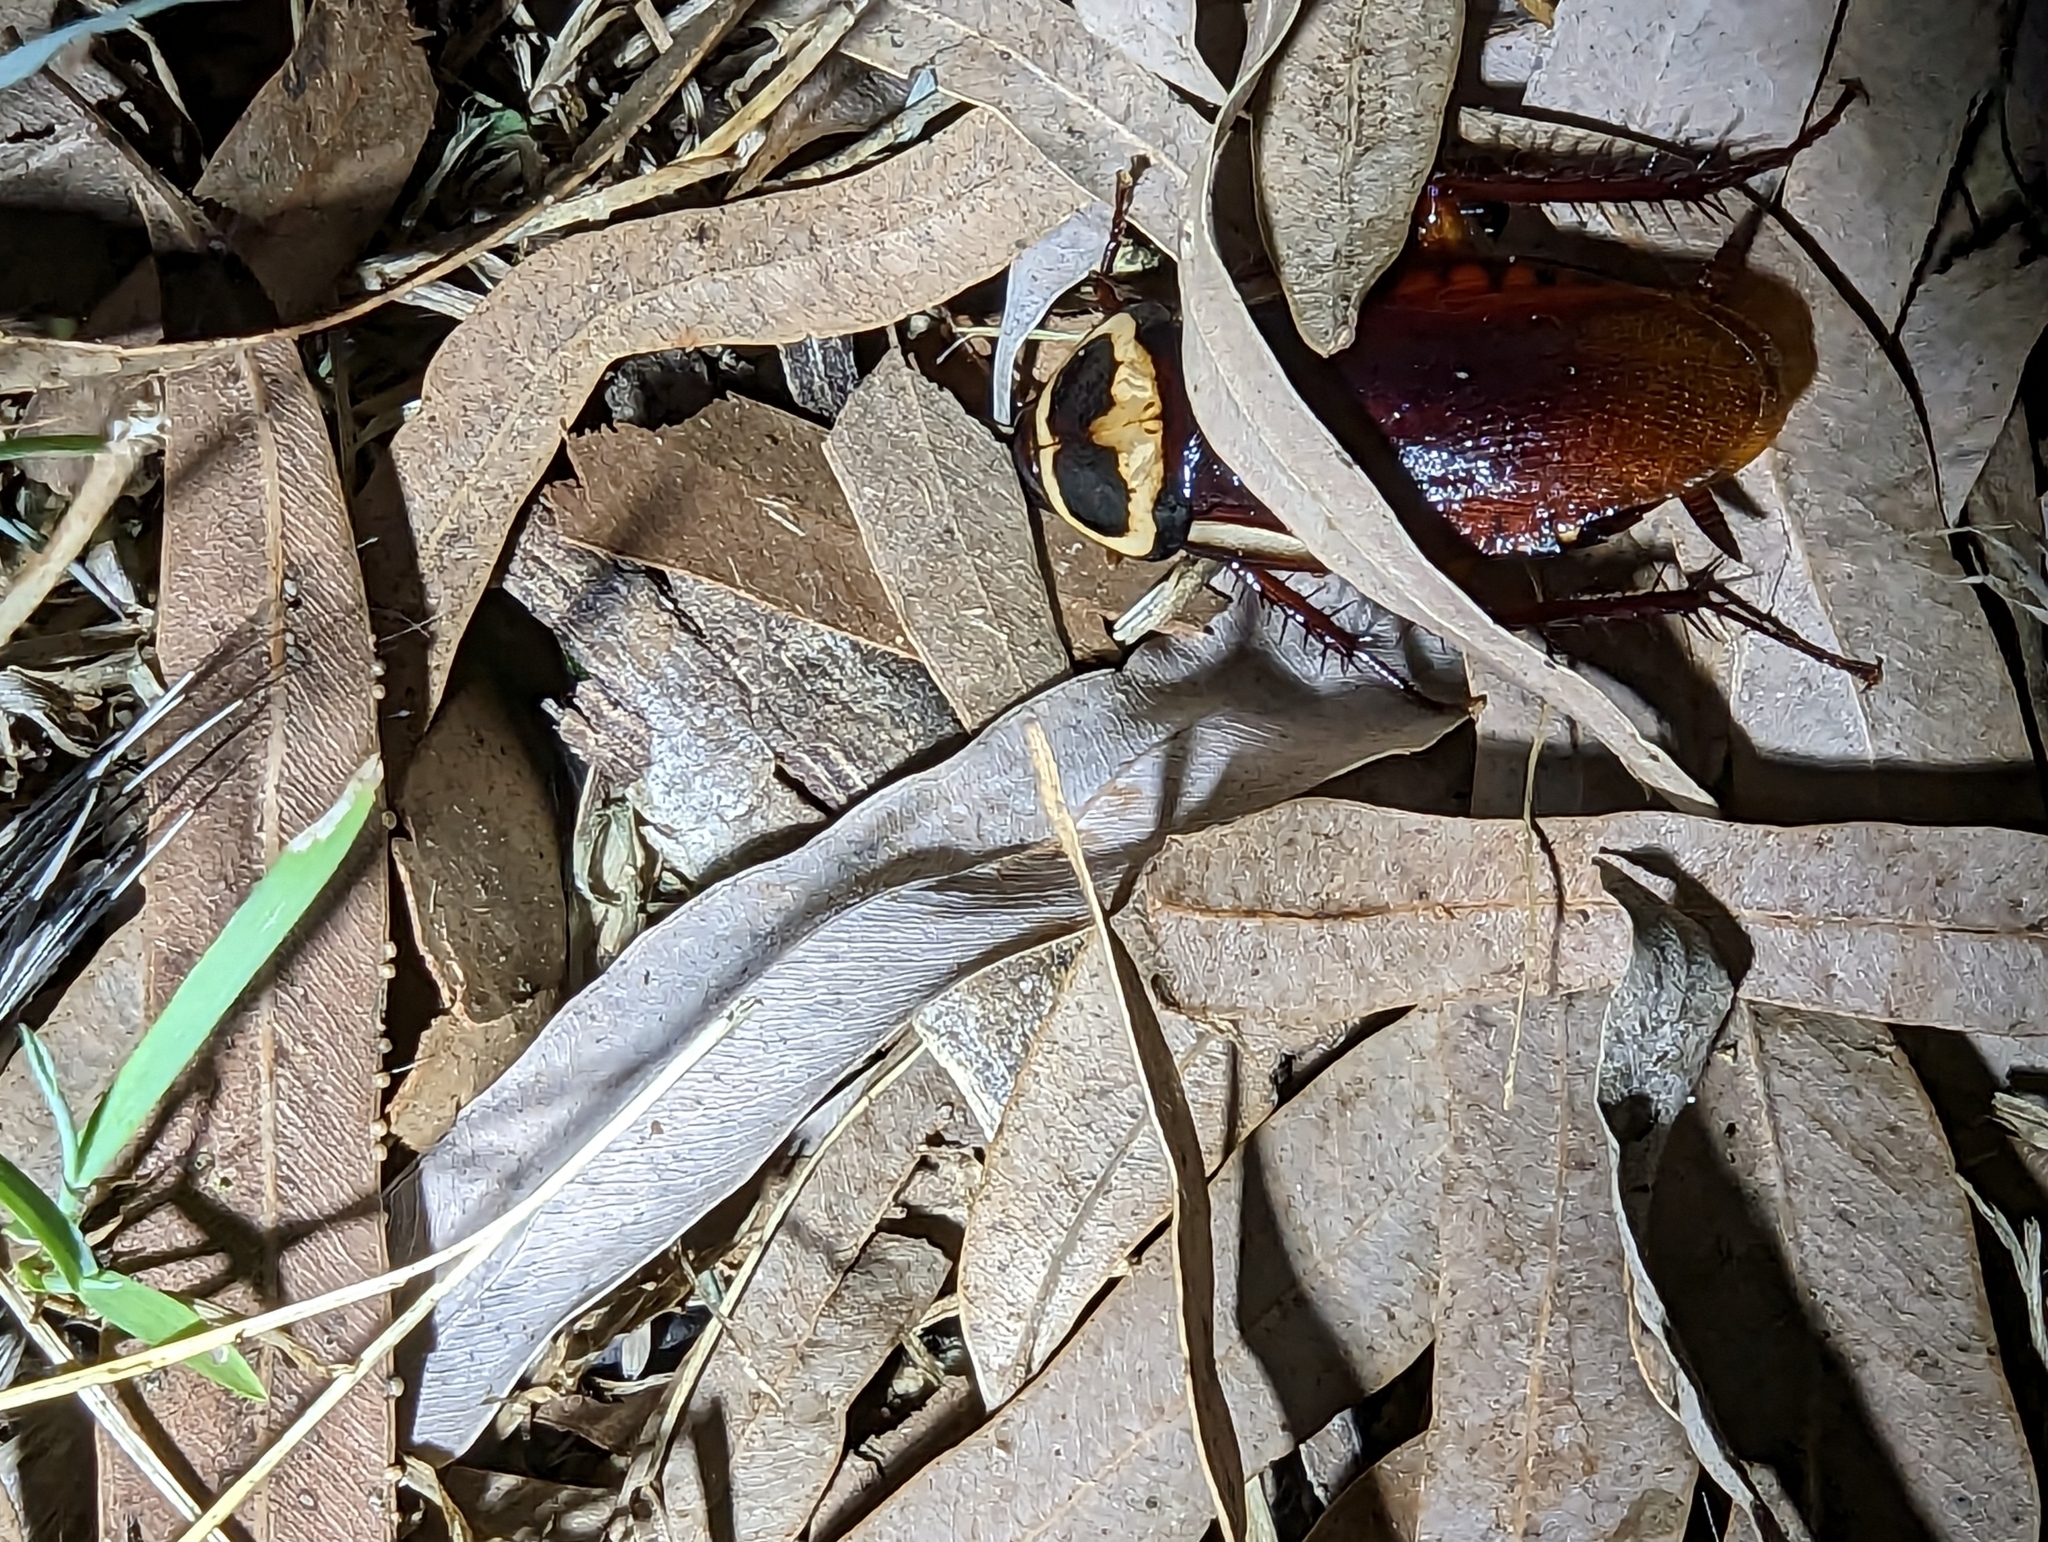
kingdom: Animalia
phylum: Arthropoda
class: Insecta
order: Blattodea
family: Blattidae
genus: Periplaneta
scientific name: Periplaneta australasiae
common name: Australian cockroach
